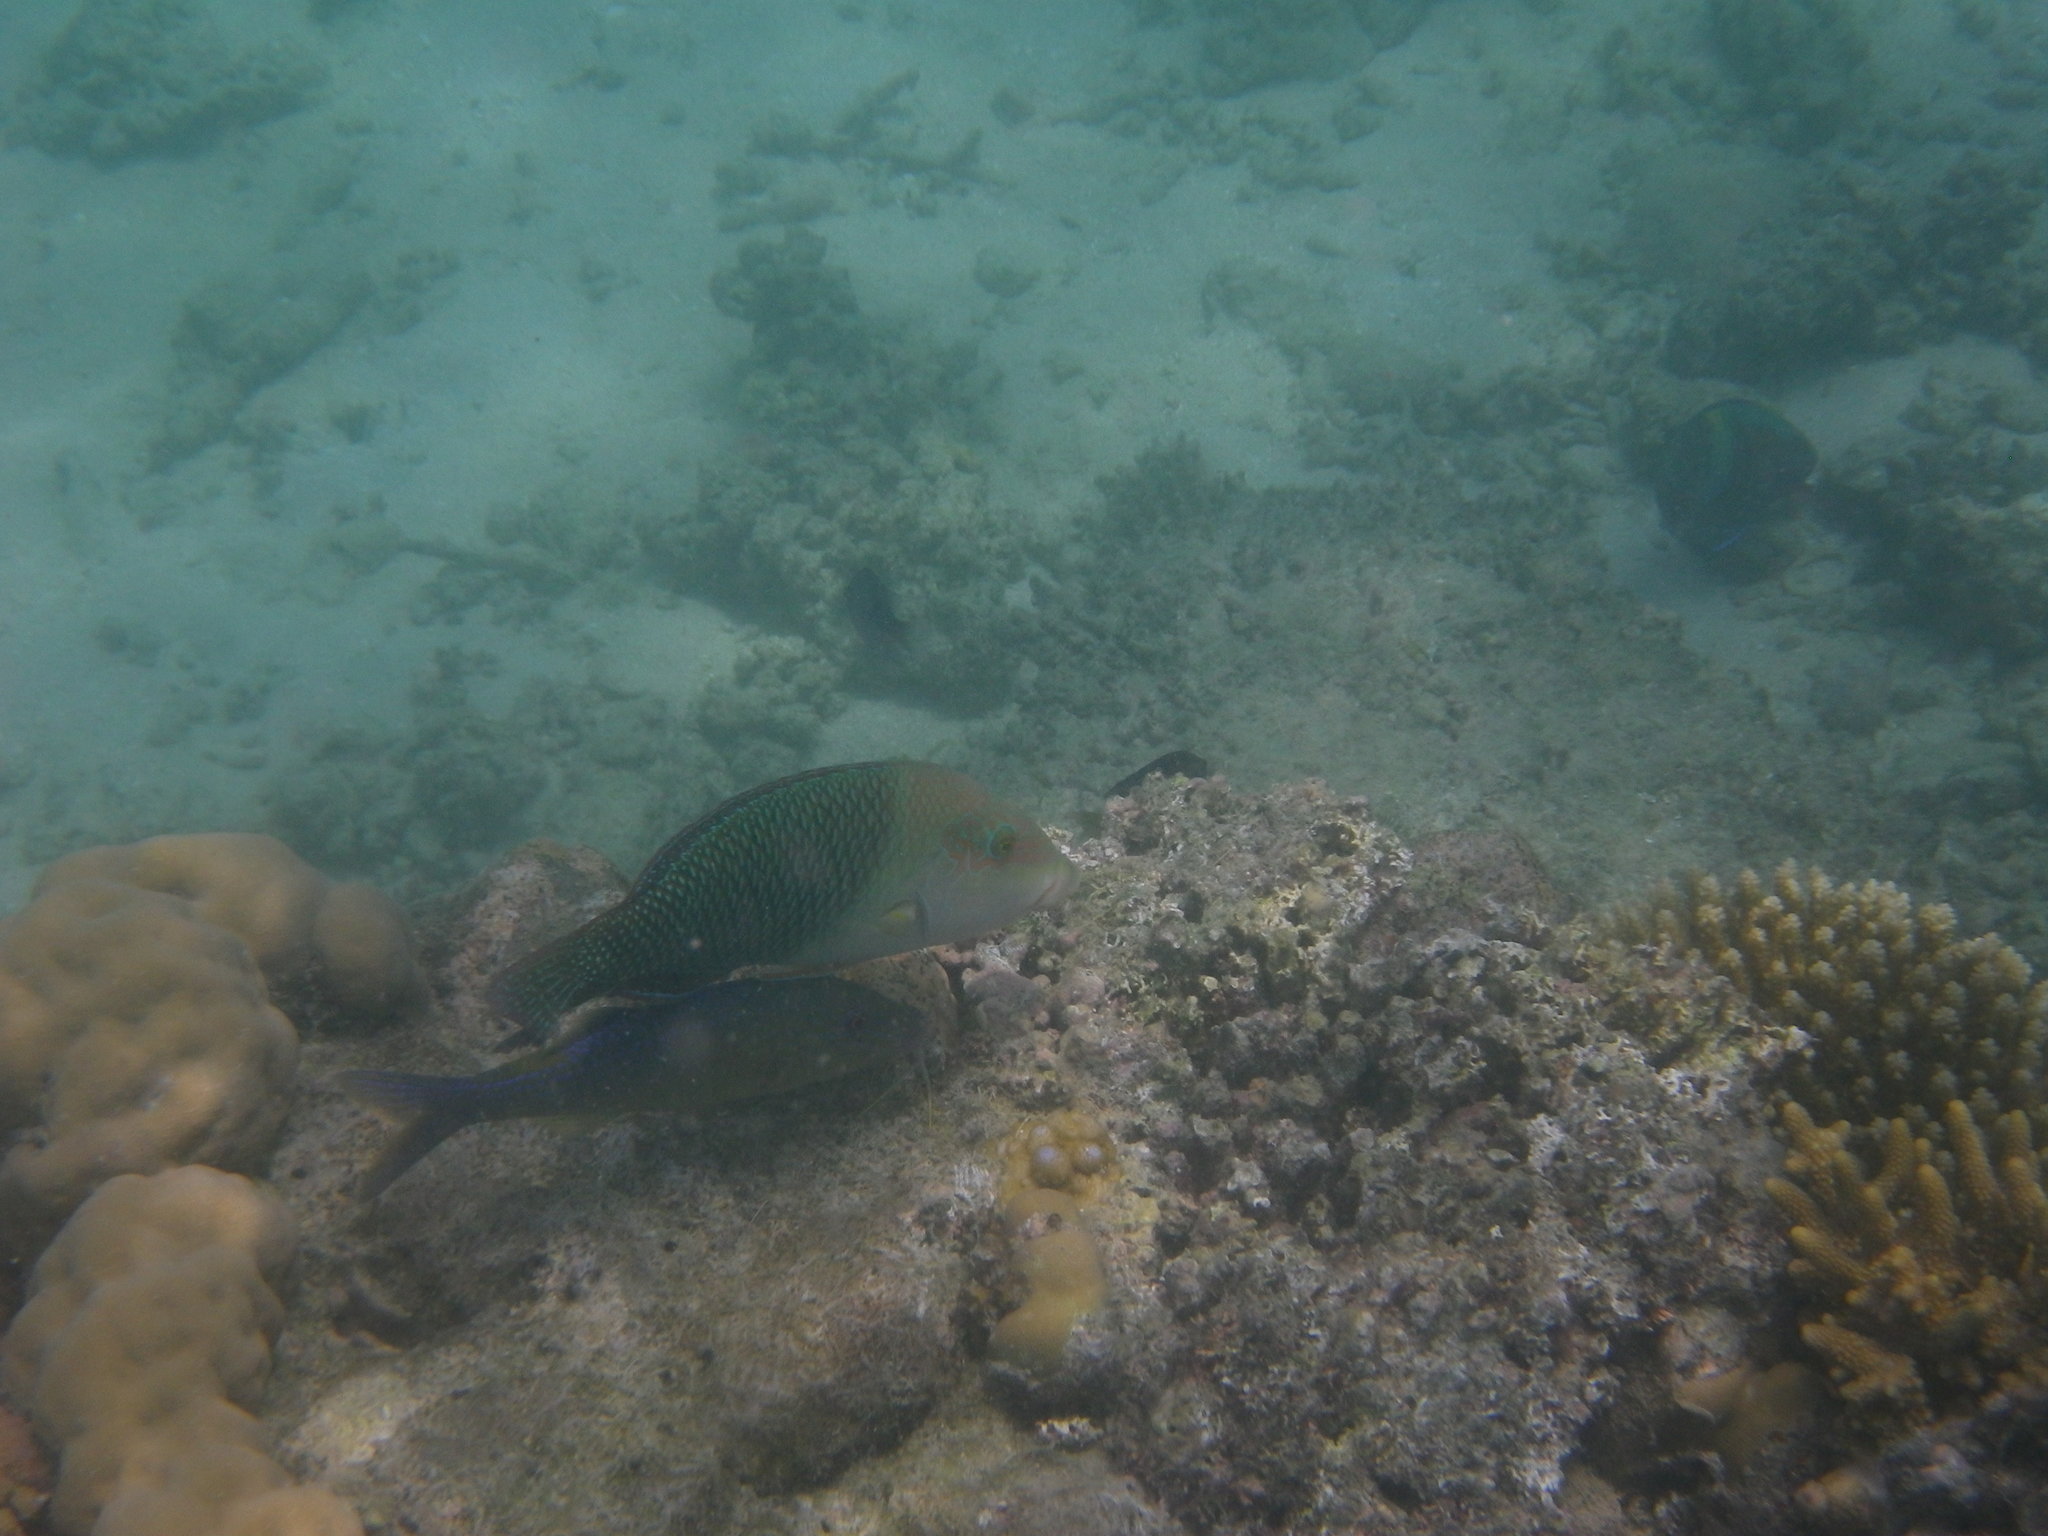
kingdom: Animalia
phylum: Chordata
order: Perciformes
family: Labridae
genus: Hemigymnus
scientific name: Hemigymnus melapterus
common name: Blackeye thicklip
